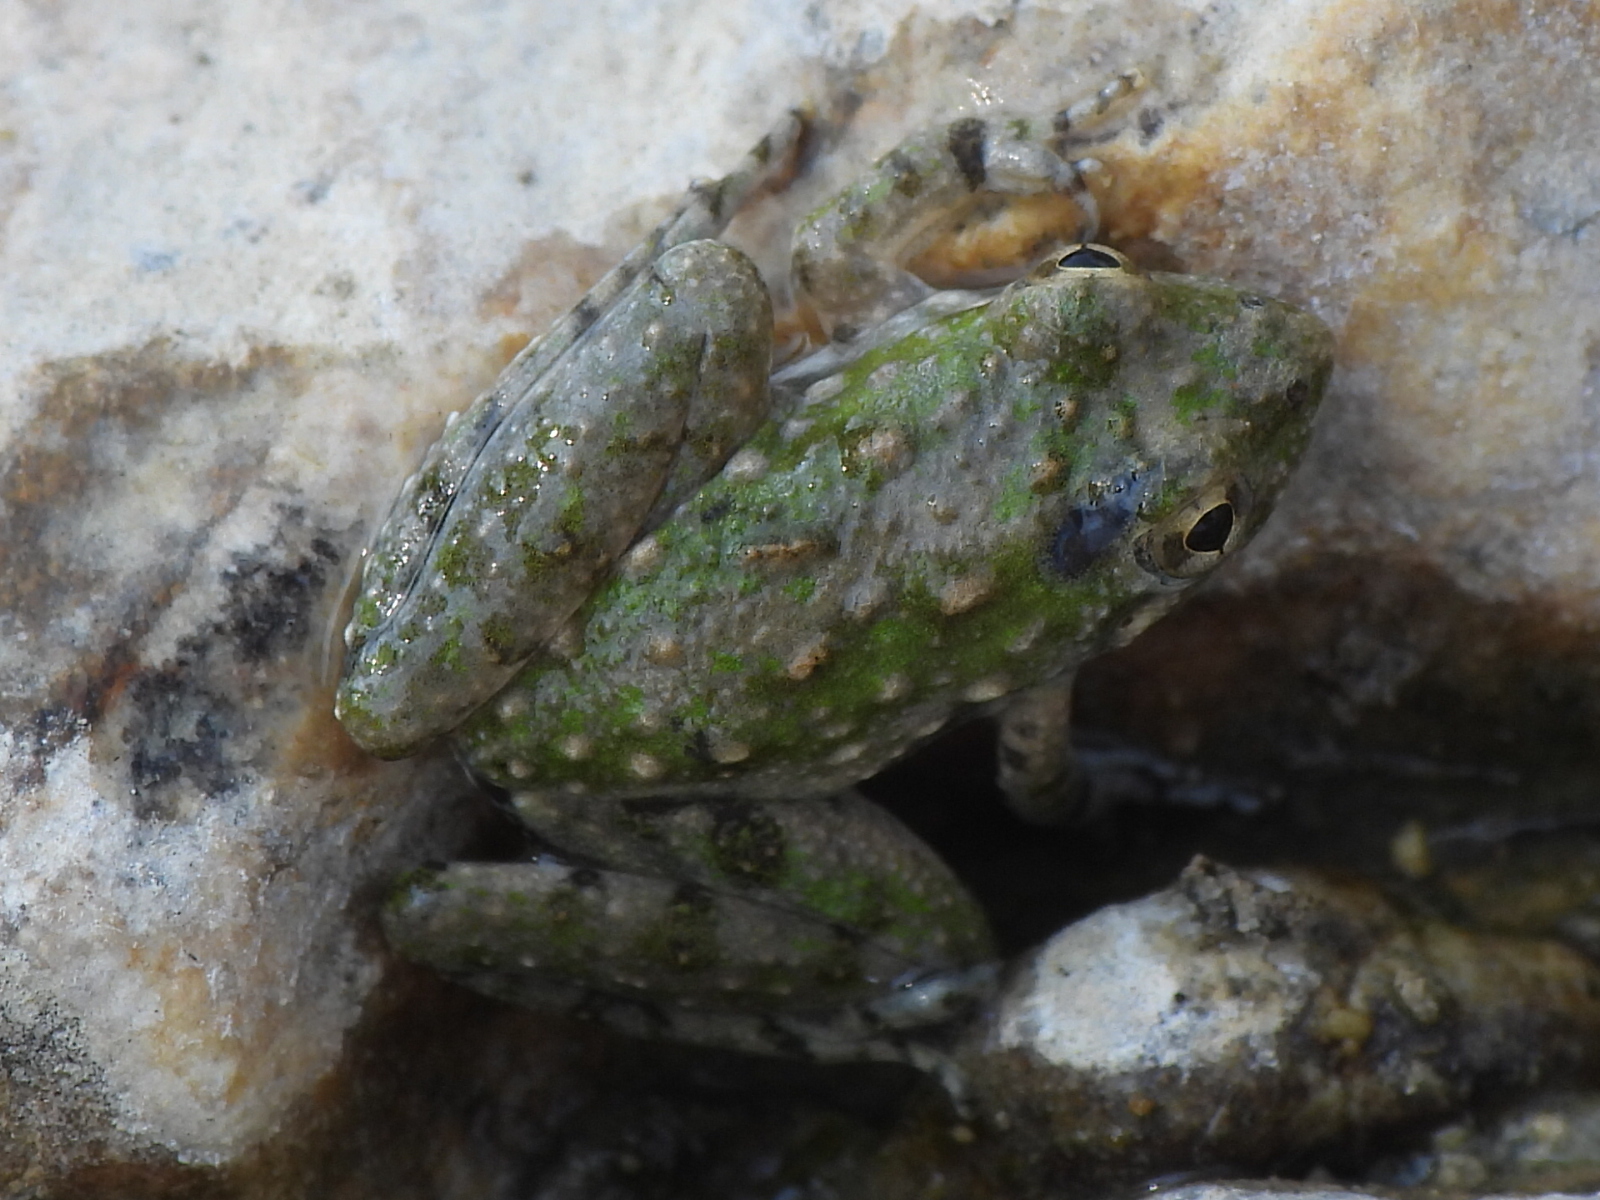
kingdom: Animalia
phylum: Chordata
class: Amphibia
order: Anura
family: Hylidae
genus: Acris
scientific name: Acris blanchardi
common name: Blanchard's cricket frog
